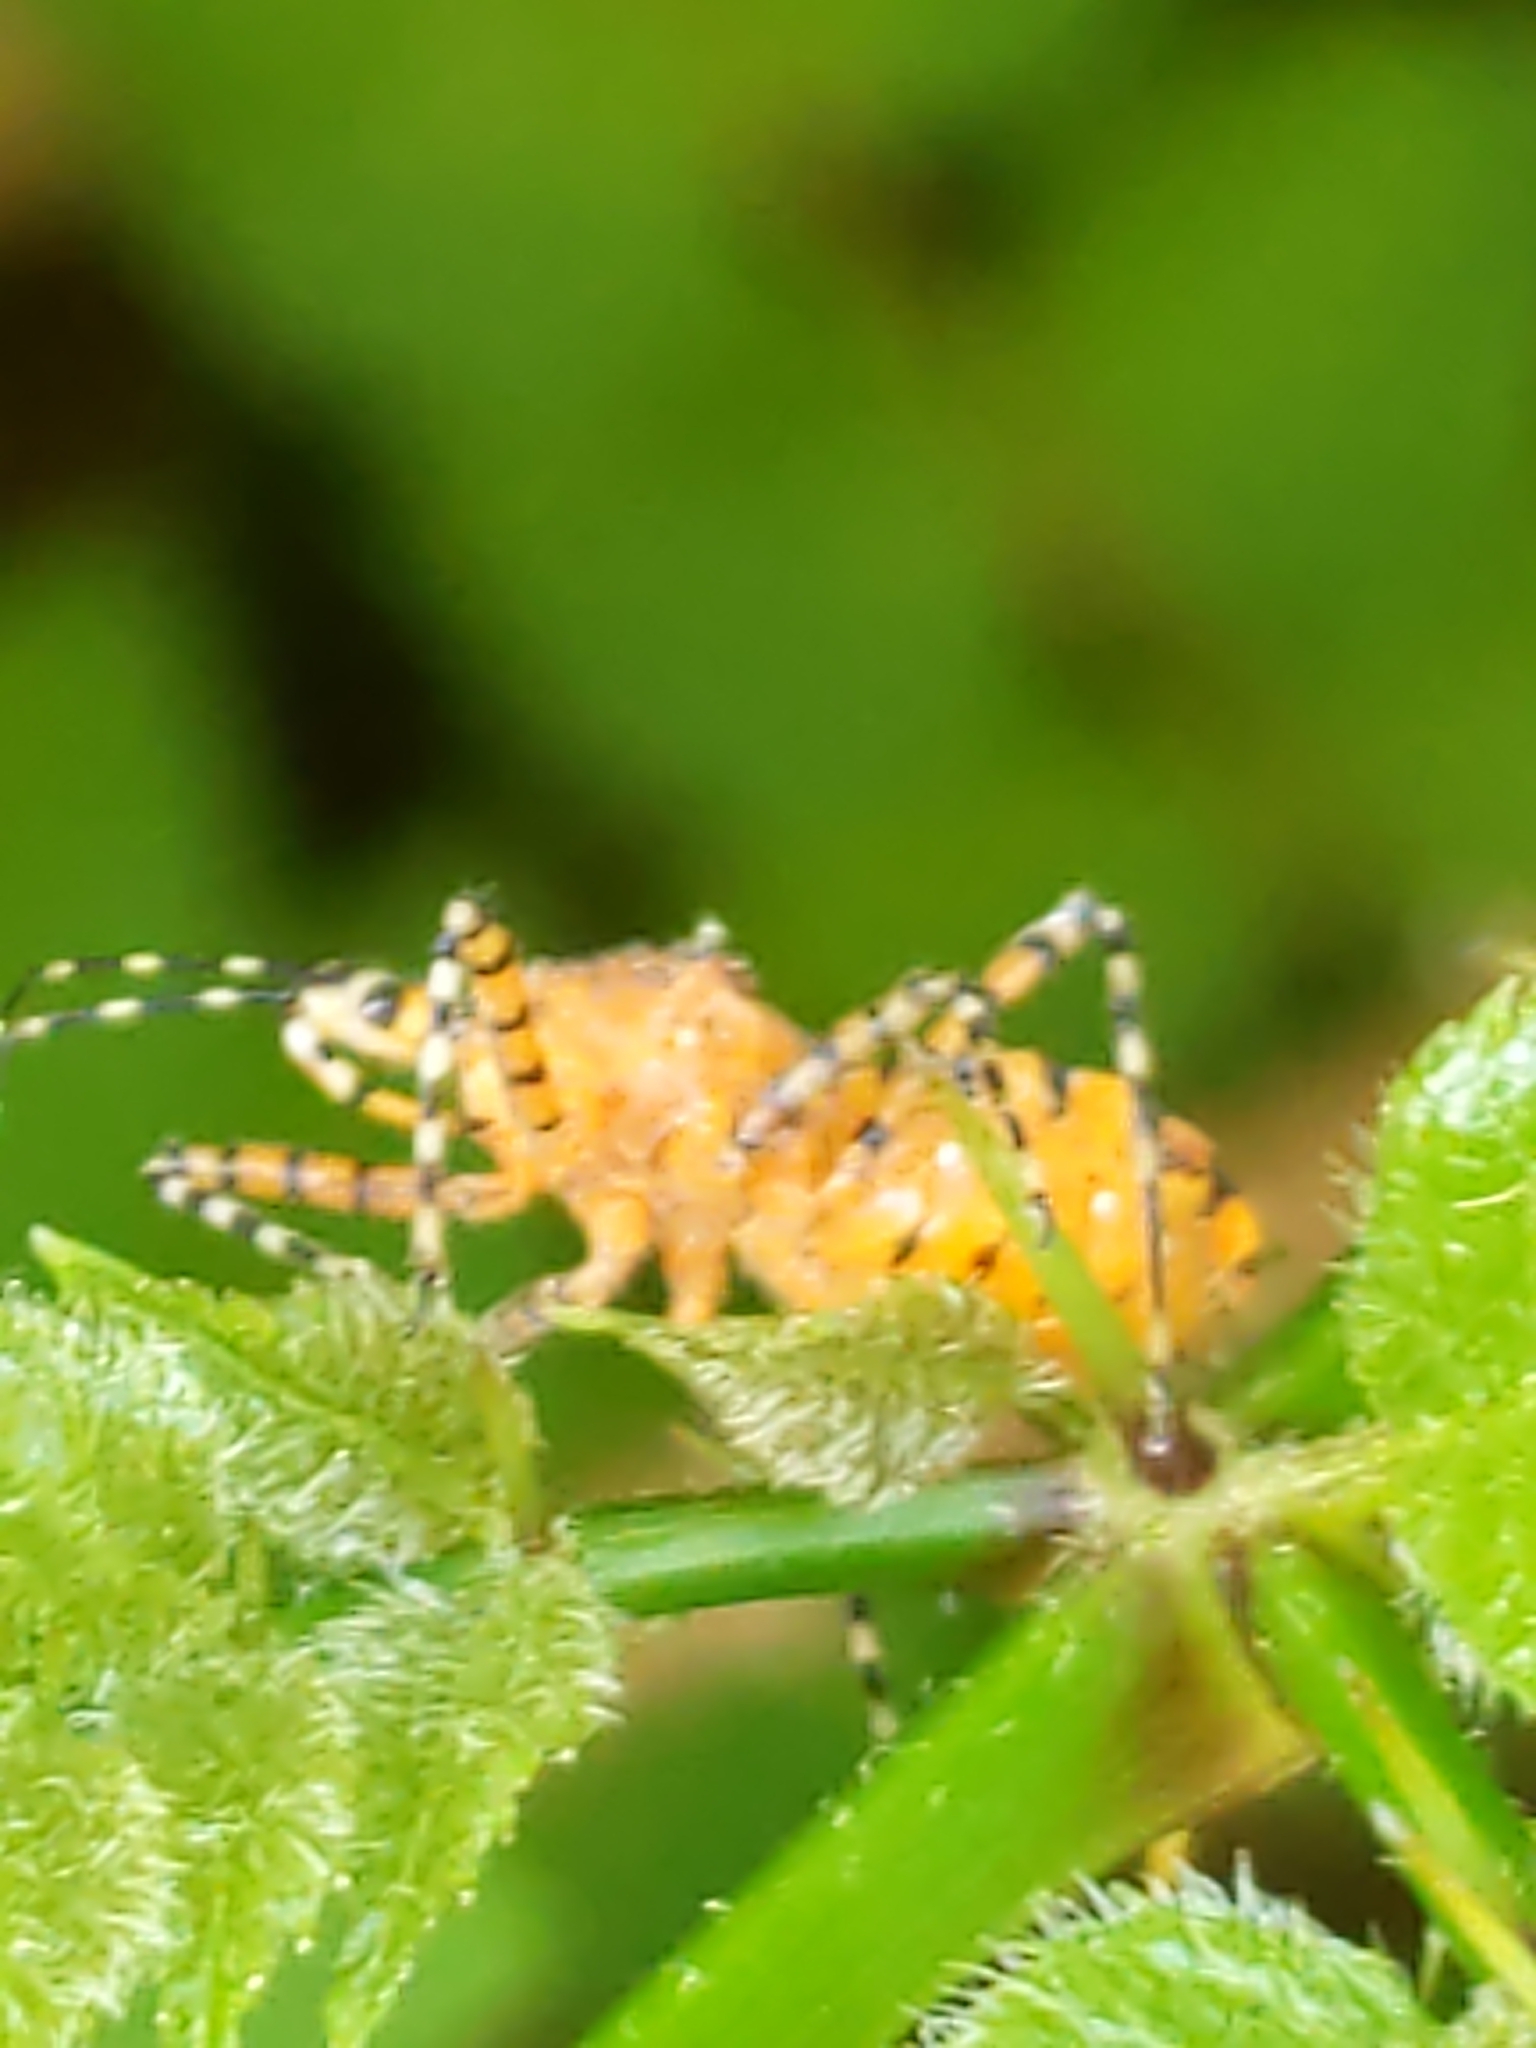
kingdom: Animalia
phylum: Arthropoda
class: Insecta
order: Hemiptera
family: Reduviidae
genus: Pselliopus
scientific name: Pselliopus barberi
